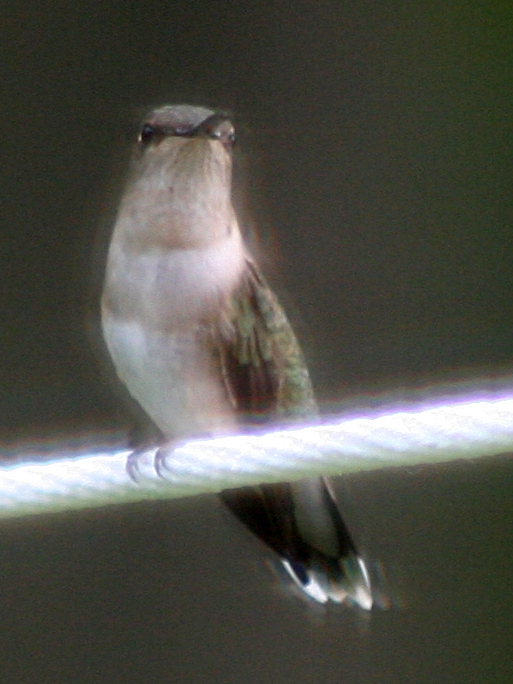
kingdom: Animalia
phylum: Chordata
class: Aves
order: Apodiformes
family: Trochilidae
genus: Archilochus
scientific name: Archilochus colubris
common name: Ruby-throated hummingbird
